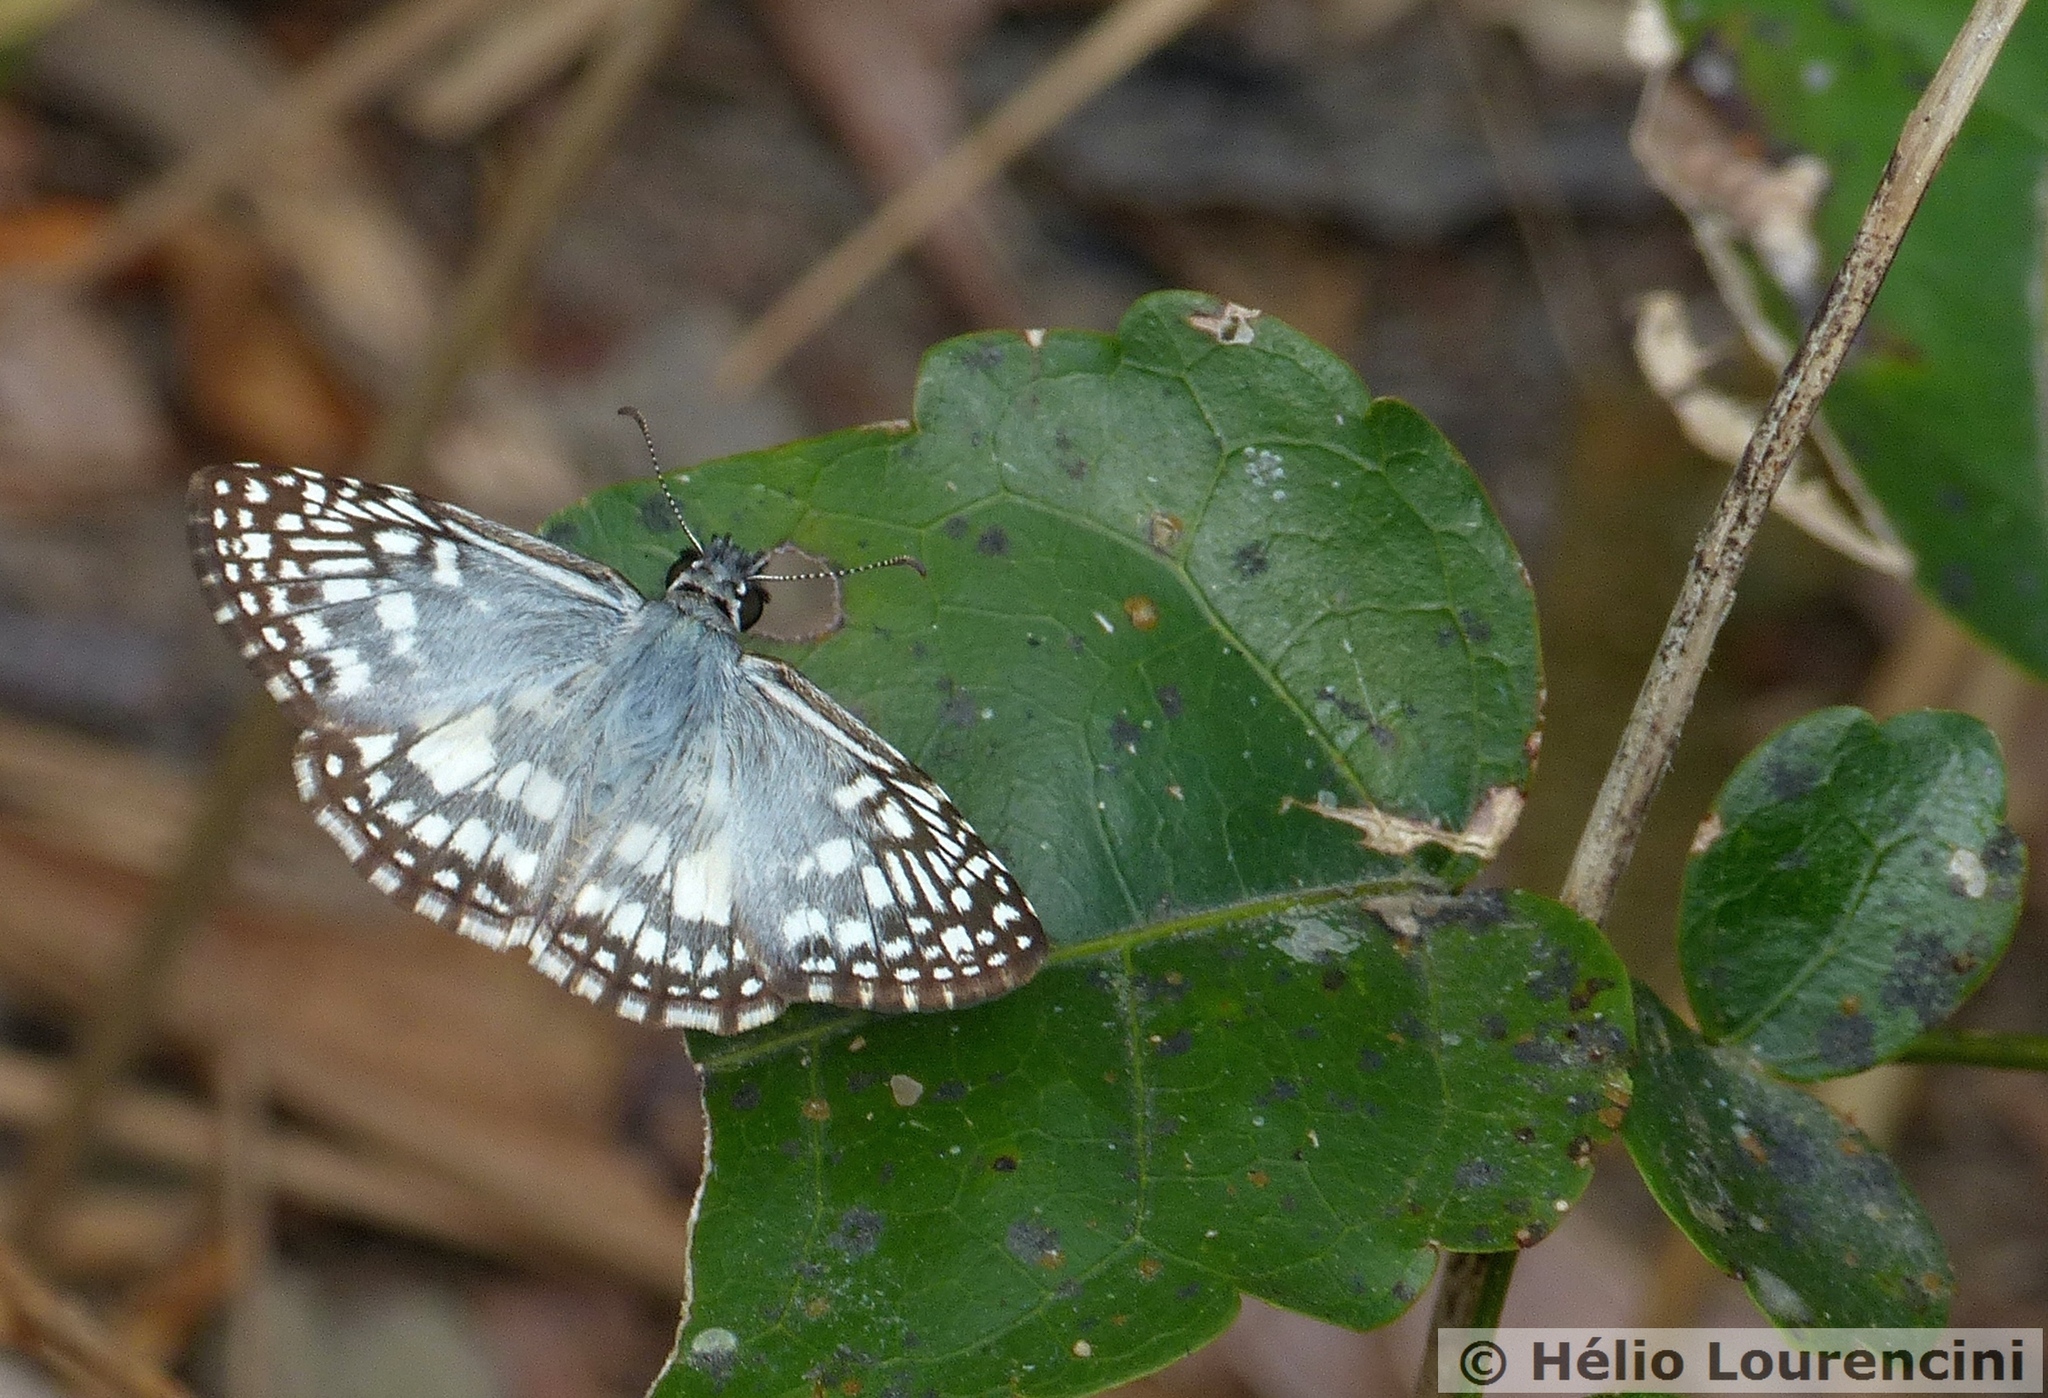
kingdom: Animalia
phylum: Arthropoda
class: Insecta
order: Lepidoptera
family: Hesperiidae
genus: Pyrgus
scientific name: Pyrgus oileus
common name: Tropical checkered-skipper
